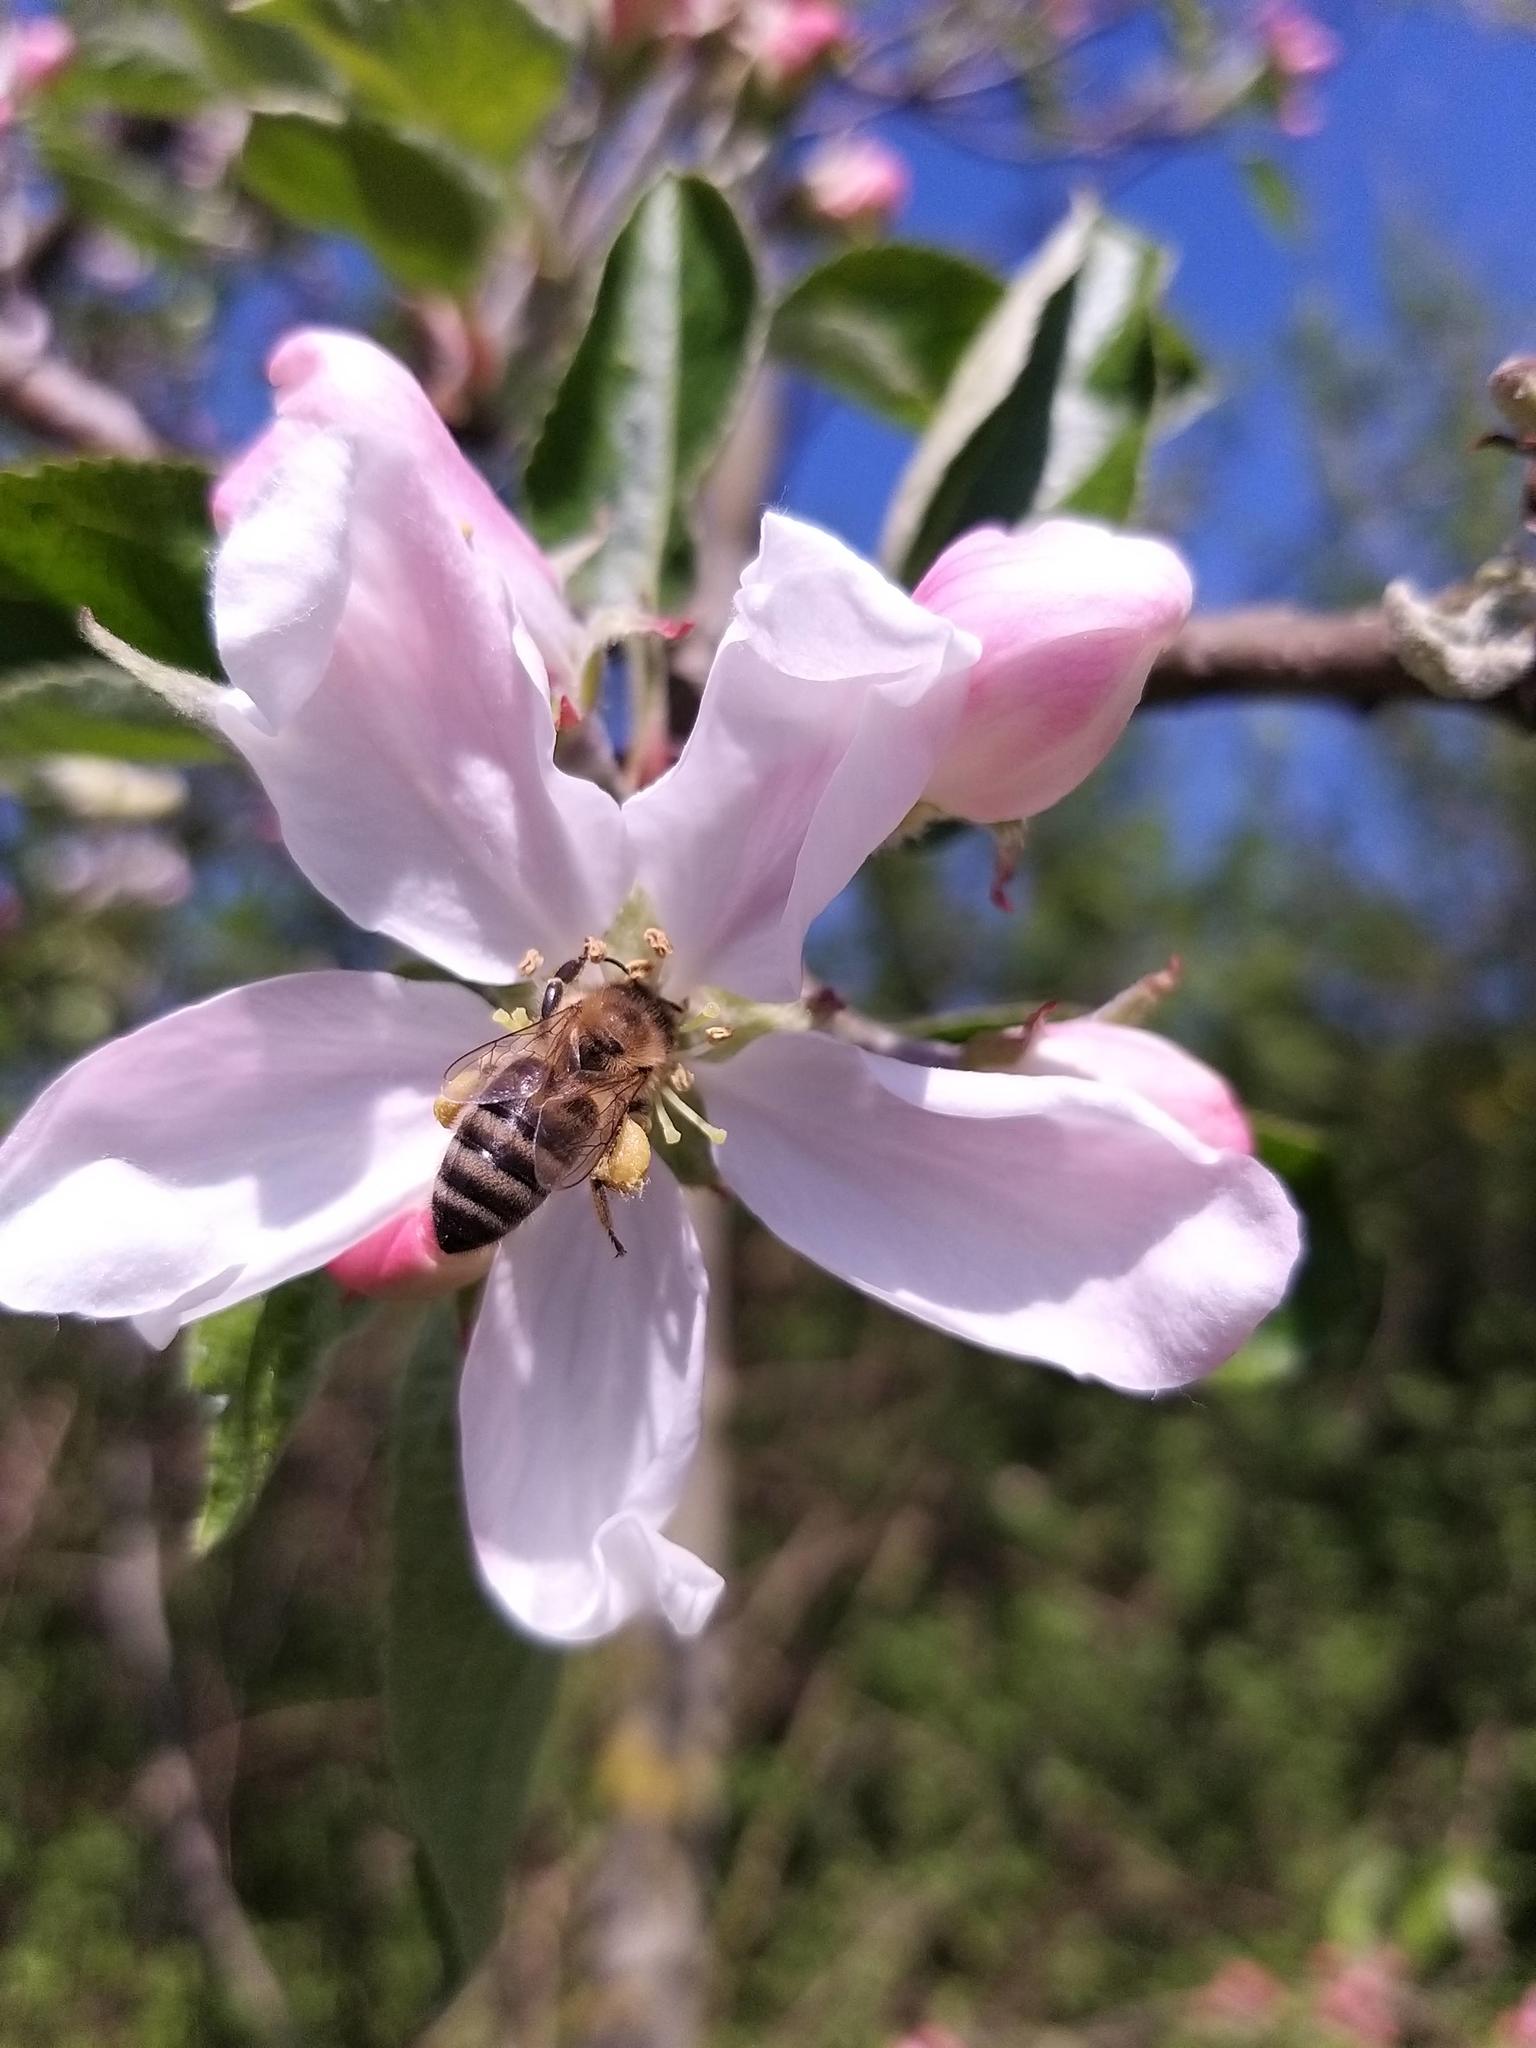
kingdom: Animalia
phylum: Arthropoda
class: Insecta
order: Hymenoptera
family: Apidae
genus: Apis
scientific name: Apis mellifera
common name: Honey bee
